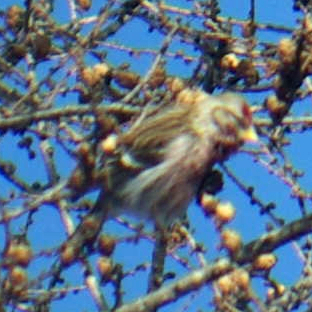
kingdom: Animalia
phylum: Chordata
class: Aves
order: Passeriformes
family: Fringillidae
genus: Acanthis
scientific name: Acanthis flammea
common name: Common redpoll
